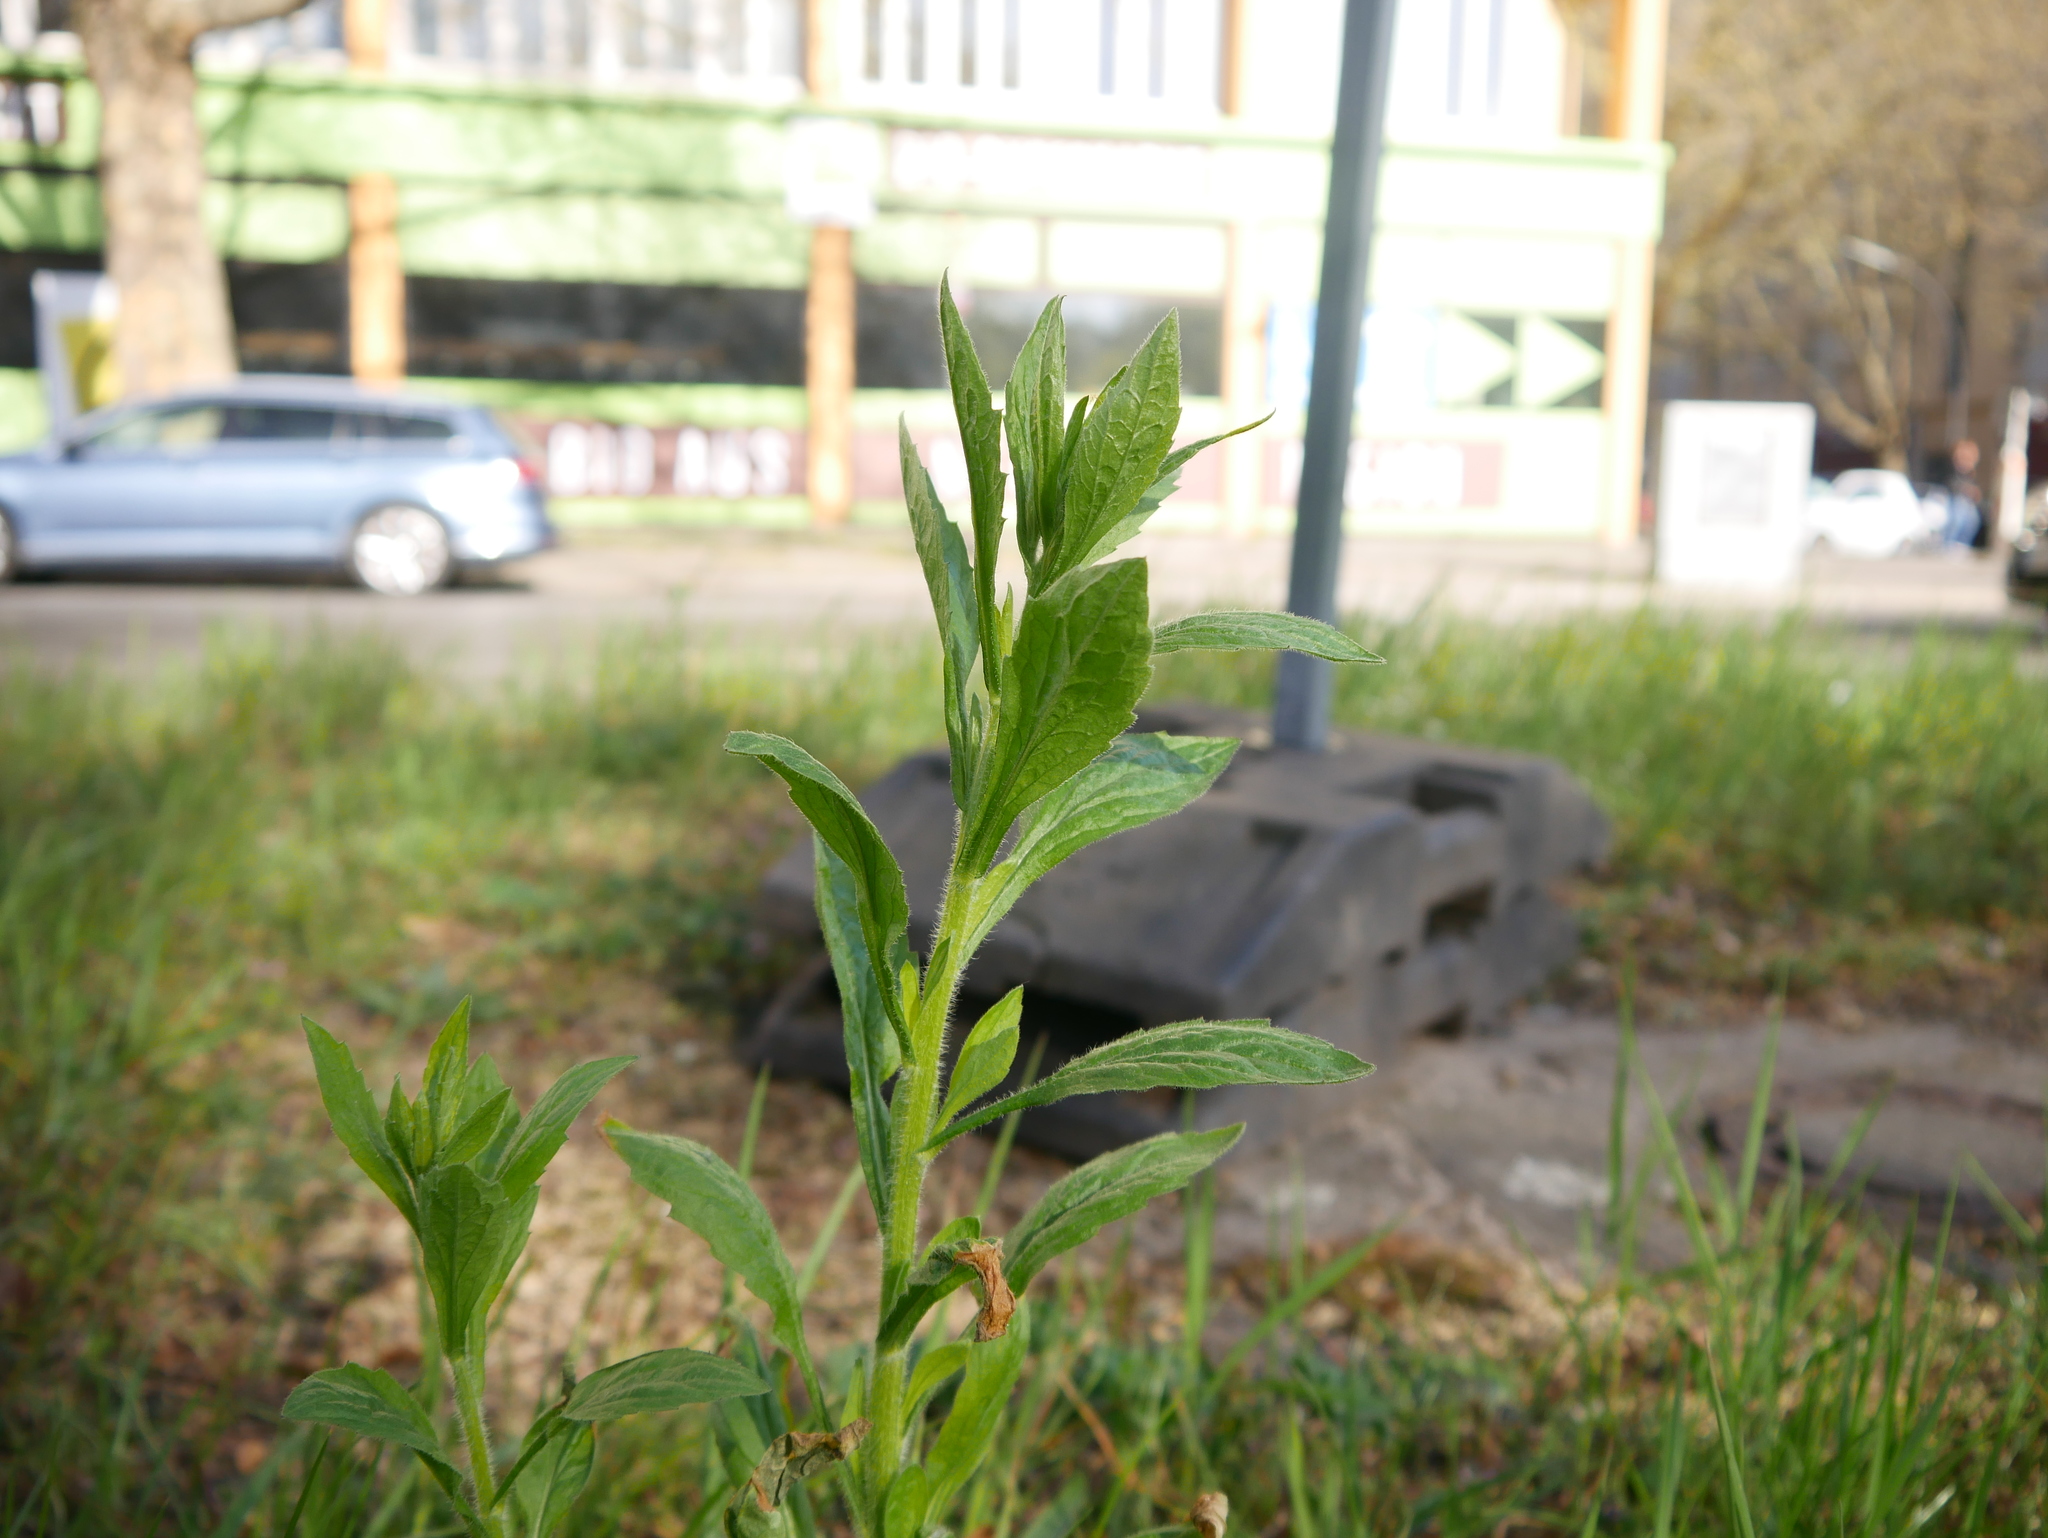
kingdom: Plantae
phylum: Tracheophyta
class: Magnoliopsida
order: Asterales
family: Asteraceae
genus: Solidago
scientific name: Solidago canadensis
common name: Canada goldenrod
